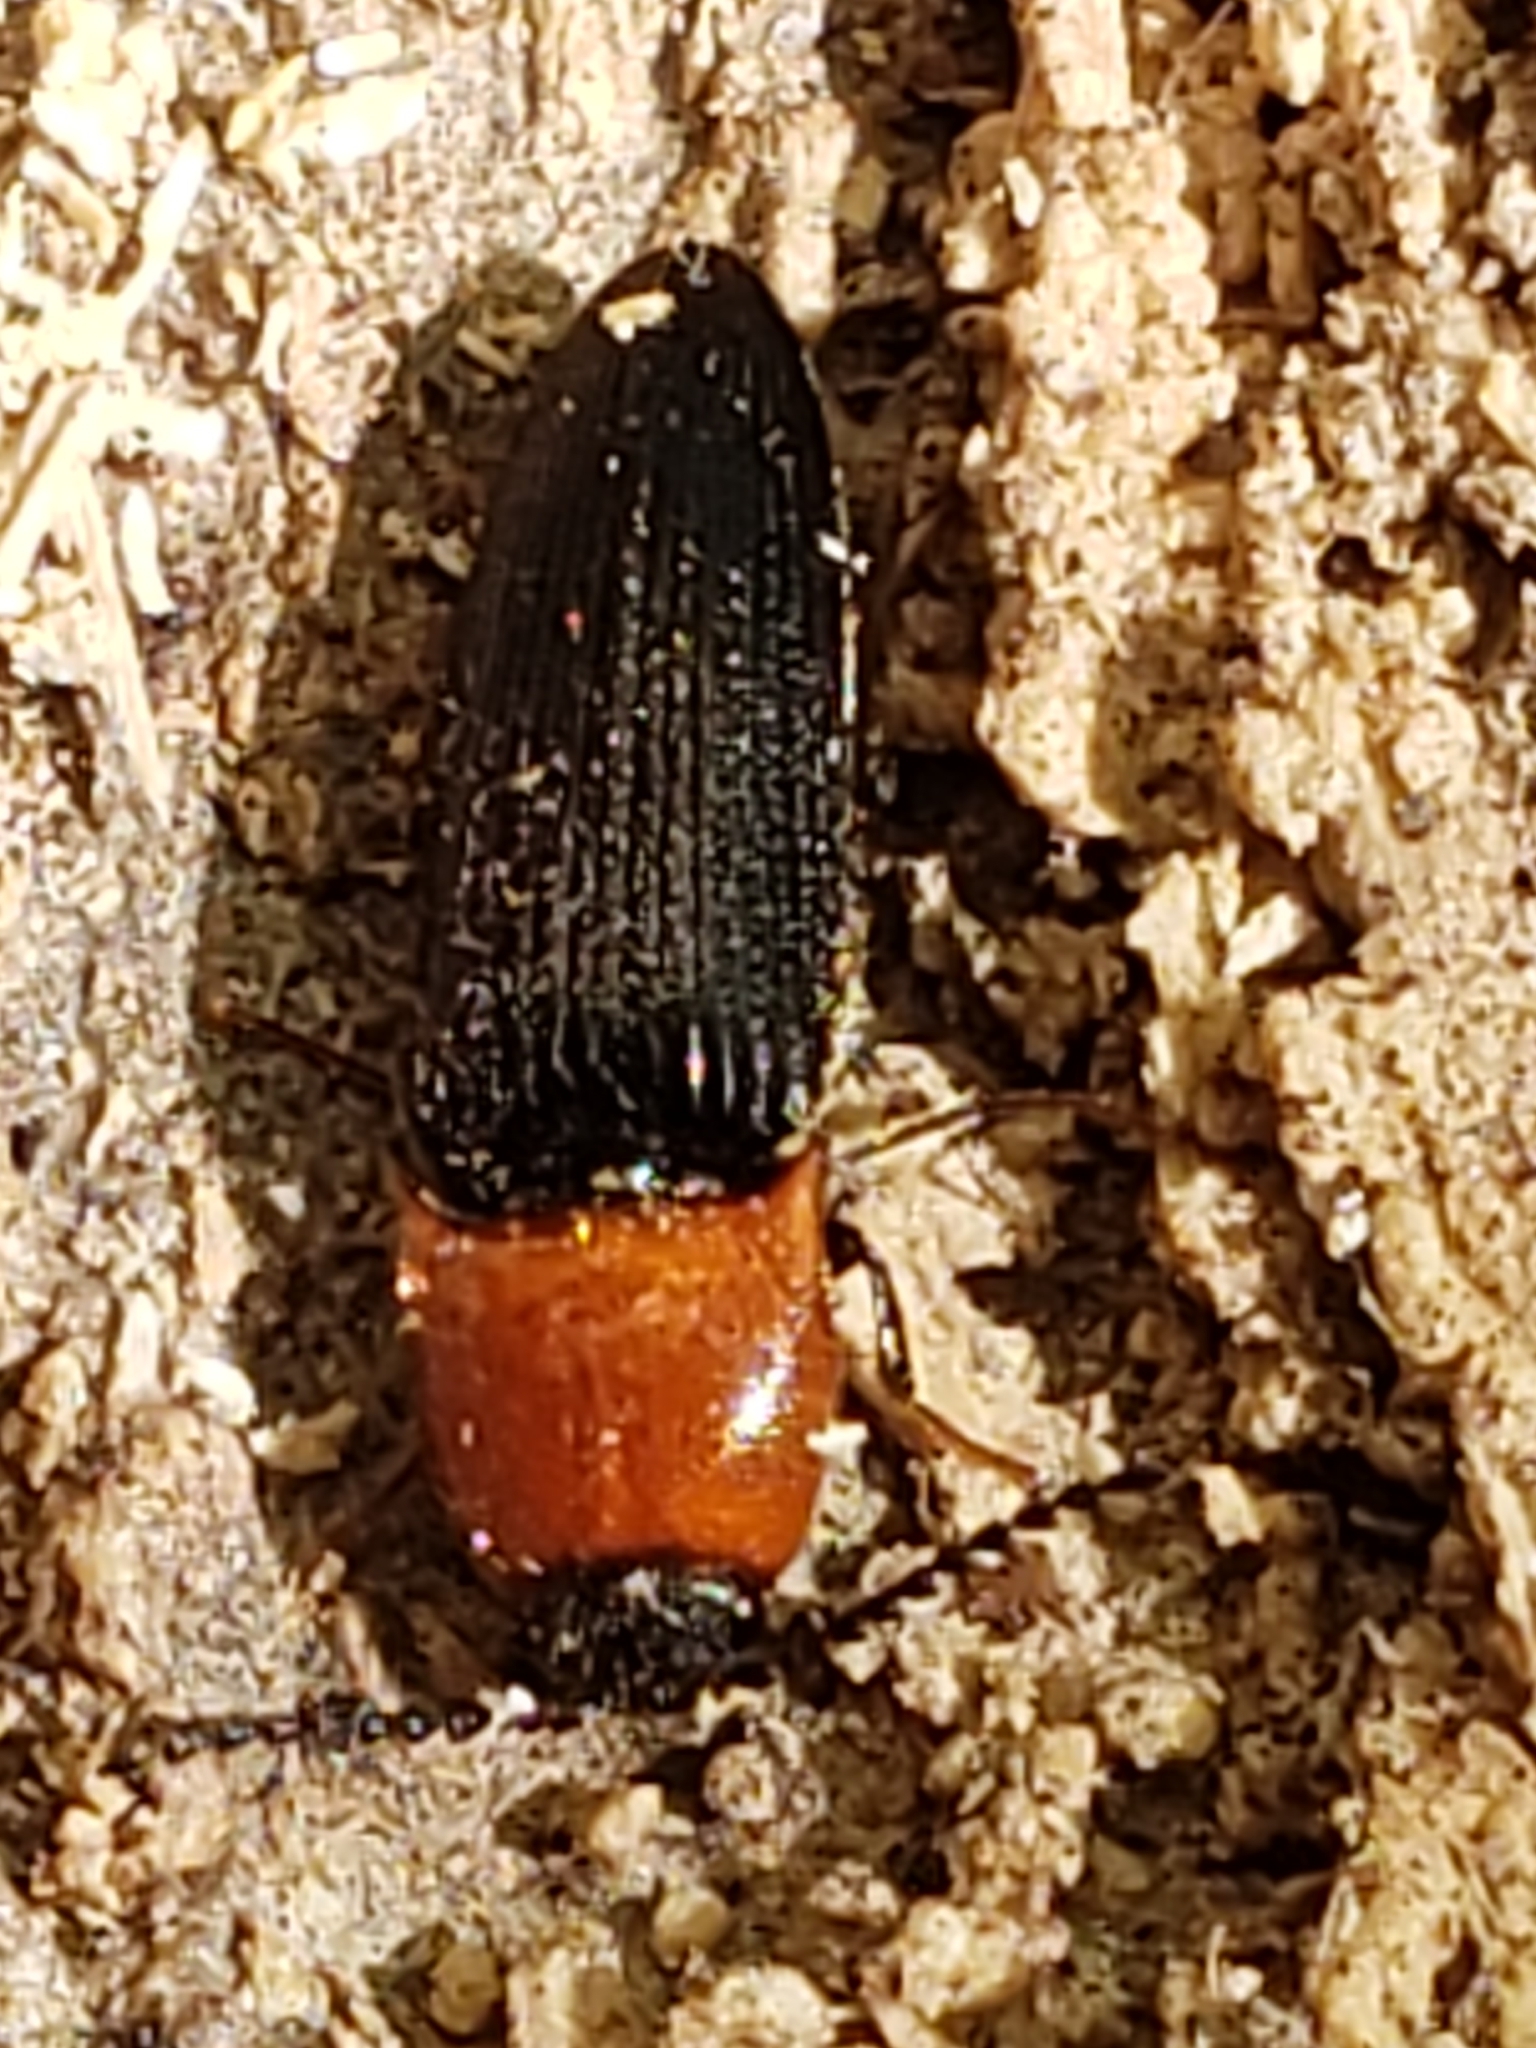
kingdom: Animalia
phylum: Arthropoda
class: Insecta
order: Coleoptera
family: Elateridae
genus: Ampedus
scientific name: Ampedus collaris
